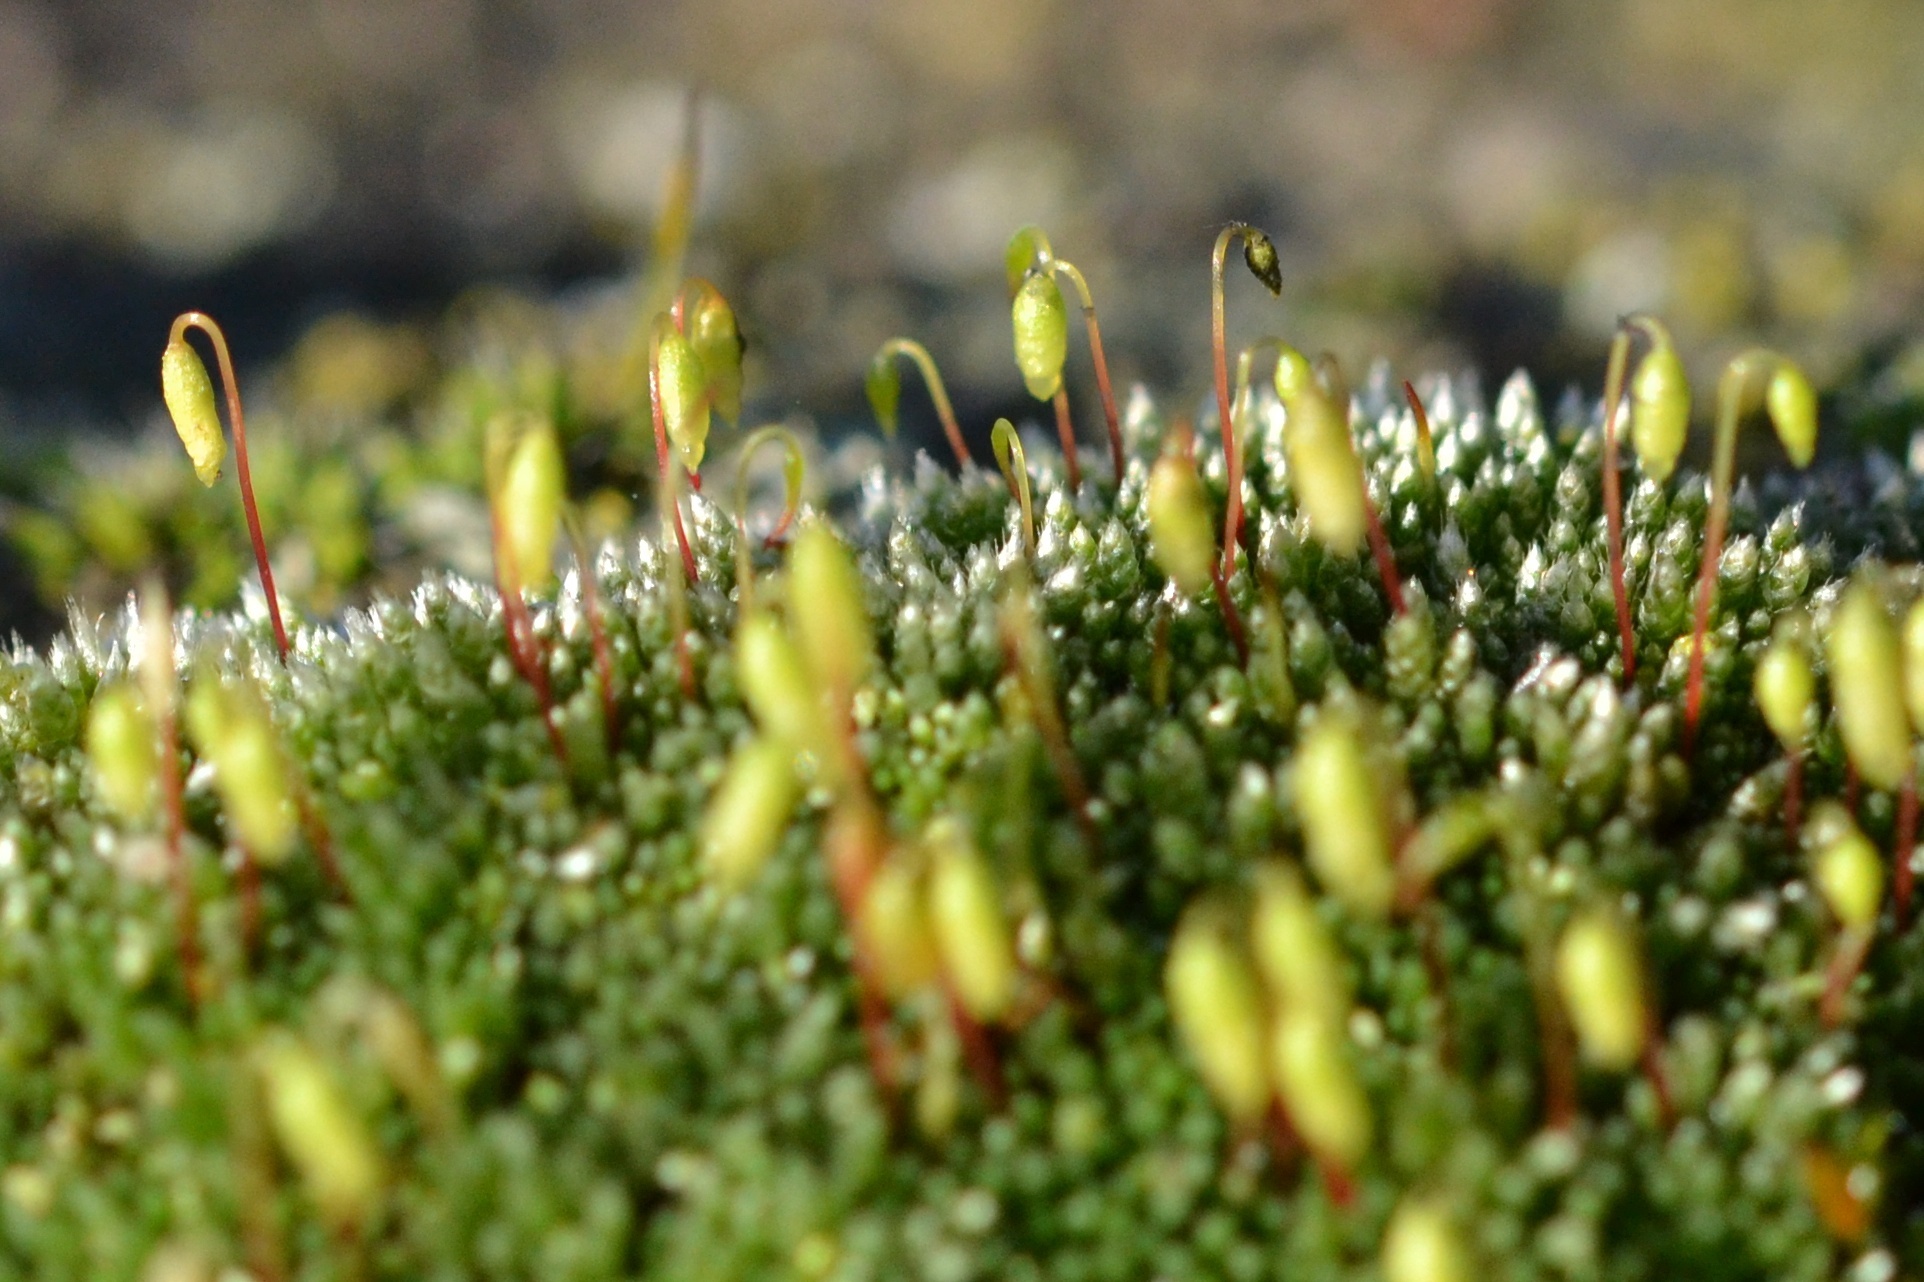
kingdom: Plantae
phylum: Bryophyta
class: Bryopsida
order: Bryales
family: Bryaceae
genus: Bryum
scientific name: Bryum argenteum
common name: Silver-moss
